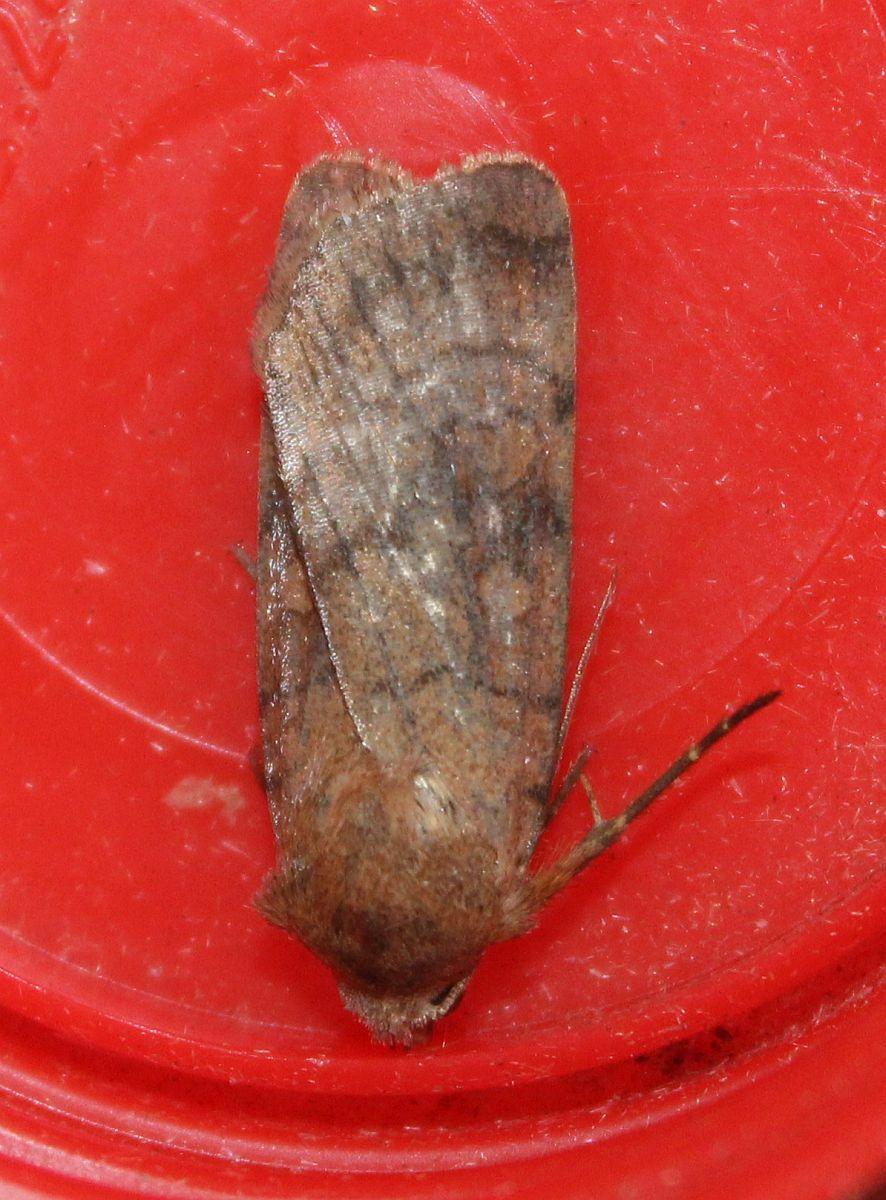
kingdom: Animalia
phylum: Arthropoda
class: Insecta
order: Lepidoptera
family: Noctuidae
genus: Xestia
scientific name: Xestia sexstrigata
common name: Six-striped rustic
